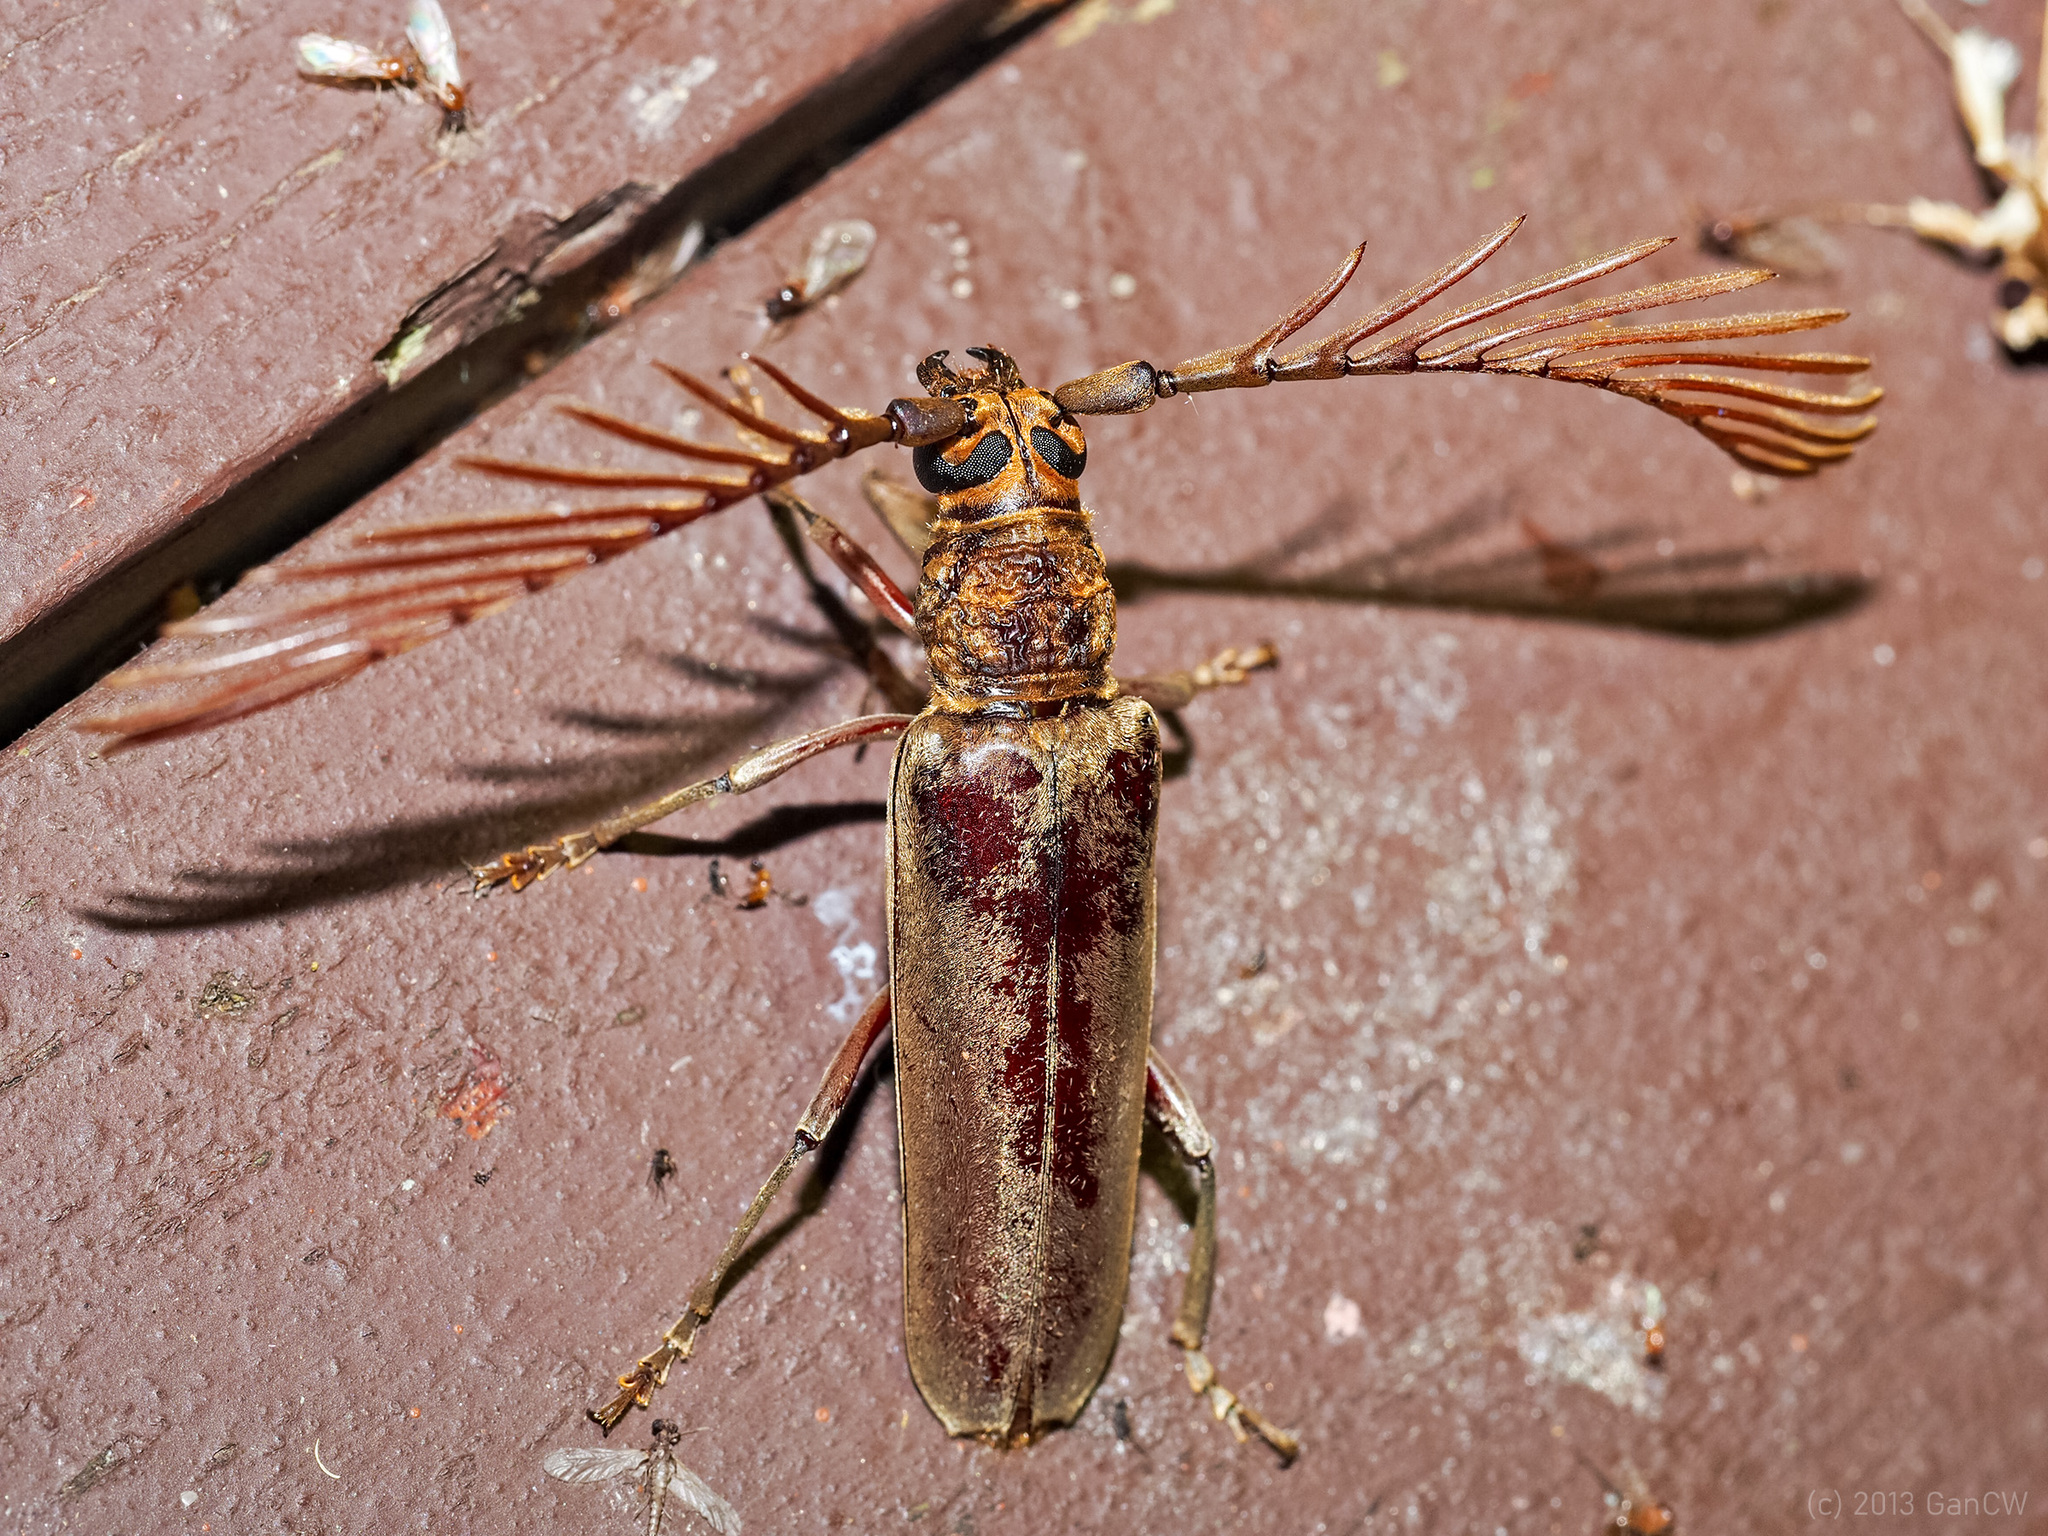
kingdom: Animalia
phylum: Arthropoda
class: Insecta
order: Coleoptera
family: Cerambycidae
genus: Cyriopalus
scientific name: Cyriopalus wallacei
